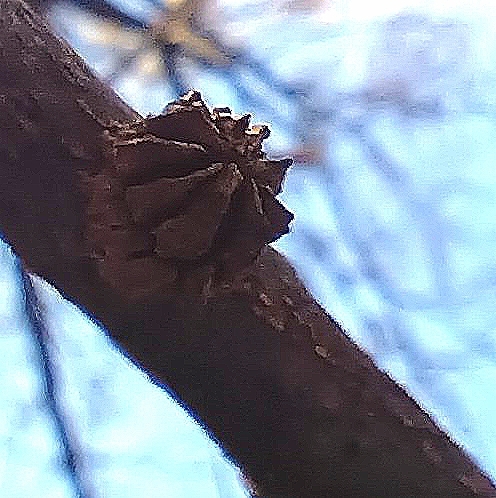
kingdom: Animalia
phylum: Arthropoda
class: Insecta
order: Hymenoptera
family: Cynipidae
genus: Andricus
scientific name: Andricus truncicola
